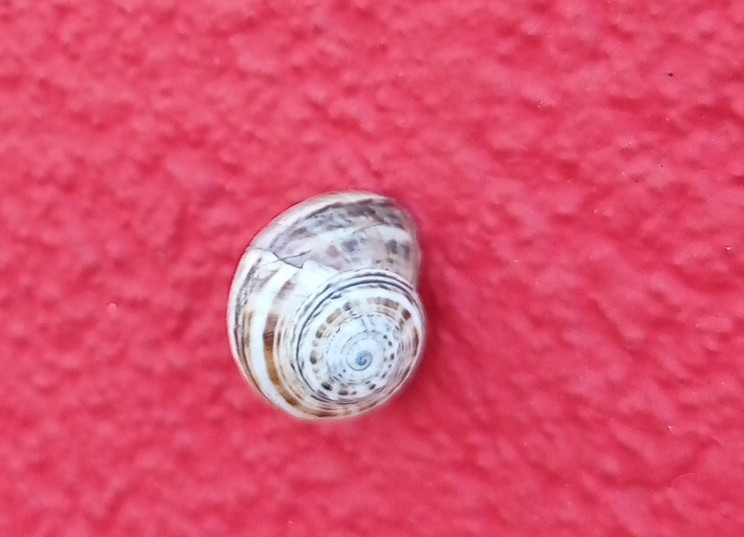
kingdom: Animalia
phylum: Mollusca
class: Gastropoda
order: Stylommatophora
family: Helicidae
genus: Theba
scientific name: Theba pisana
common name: White snail
